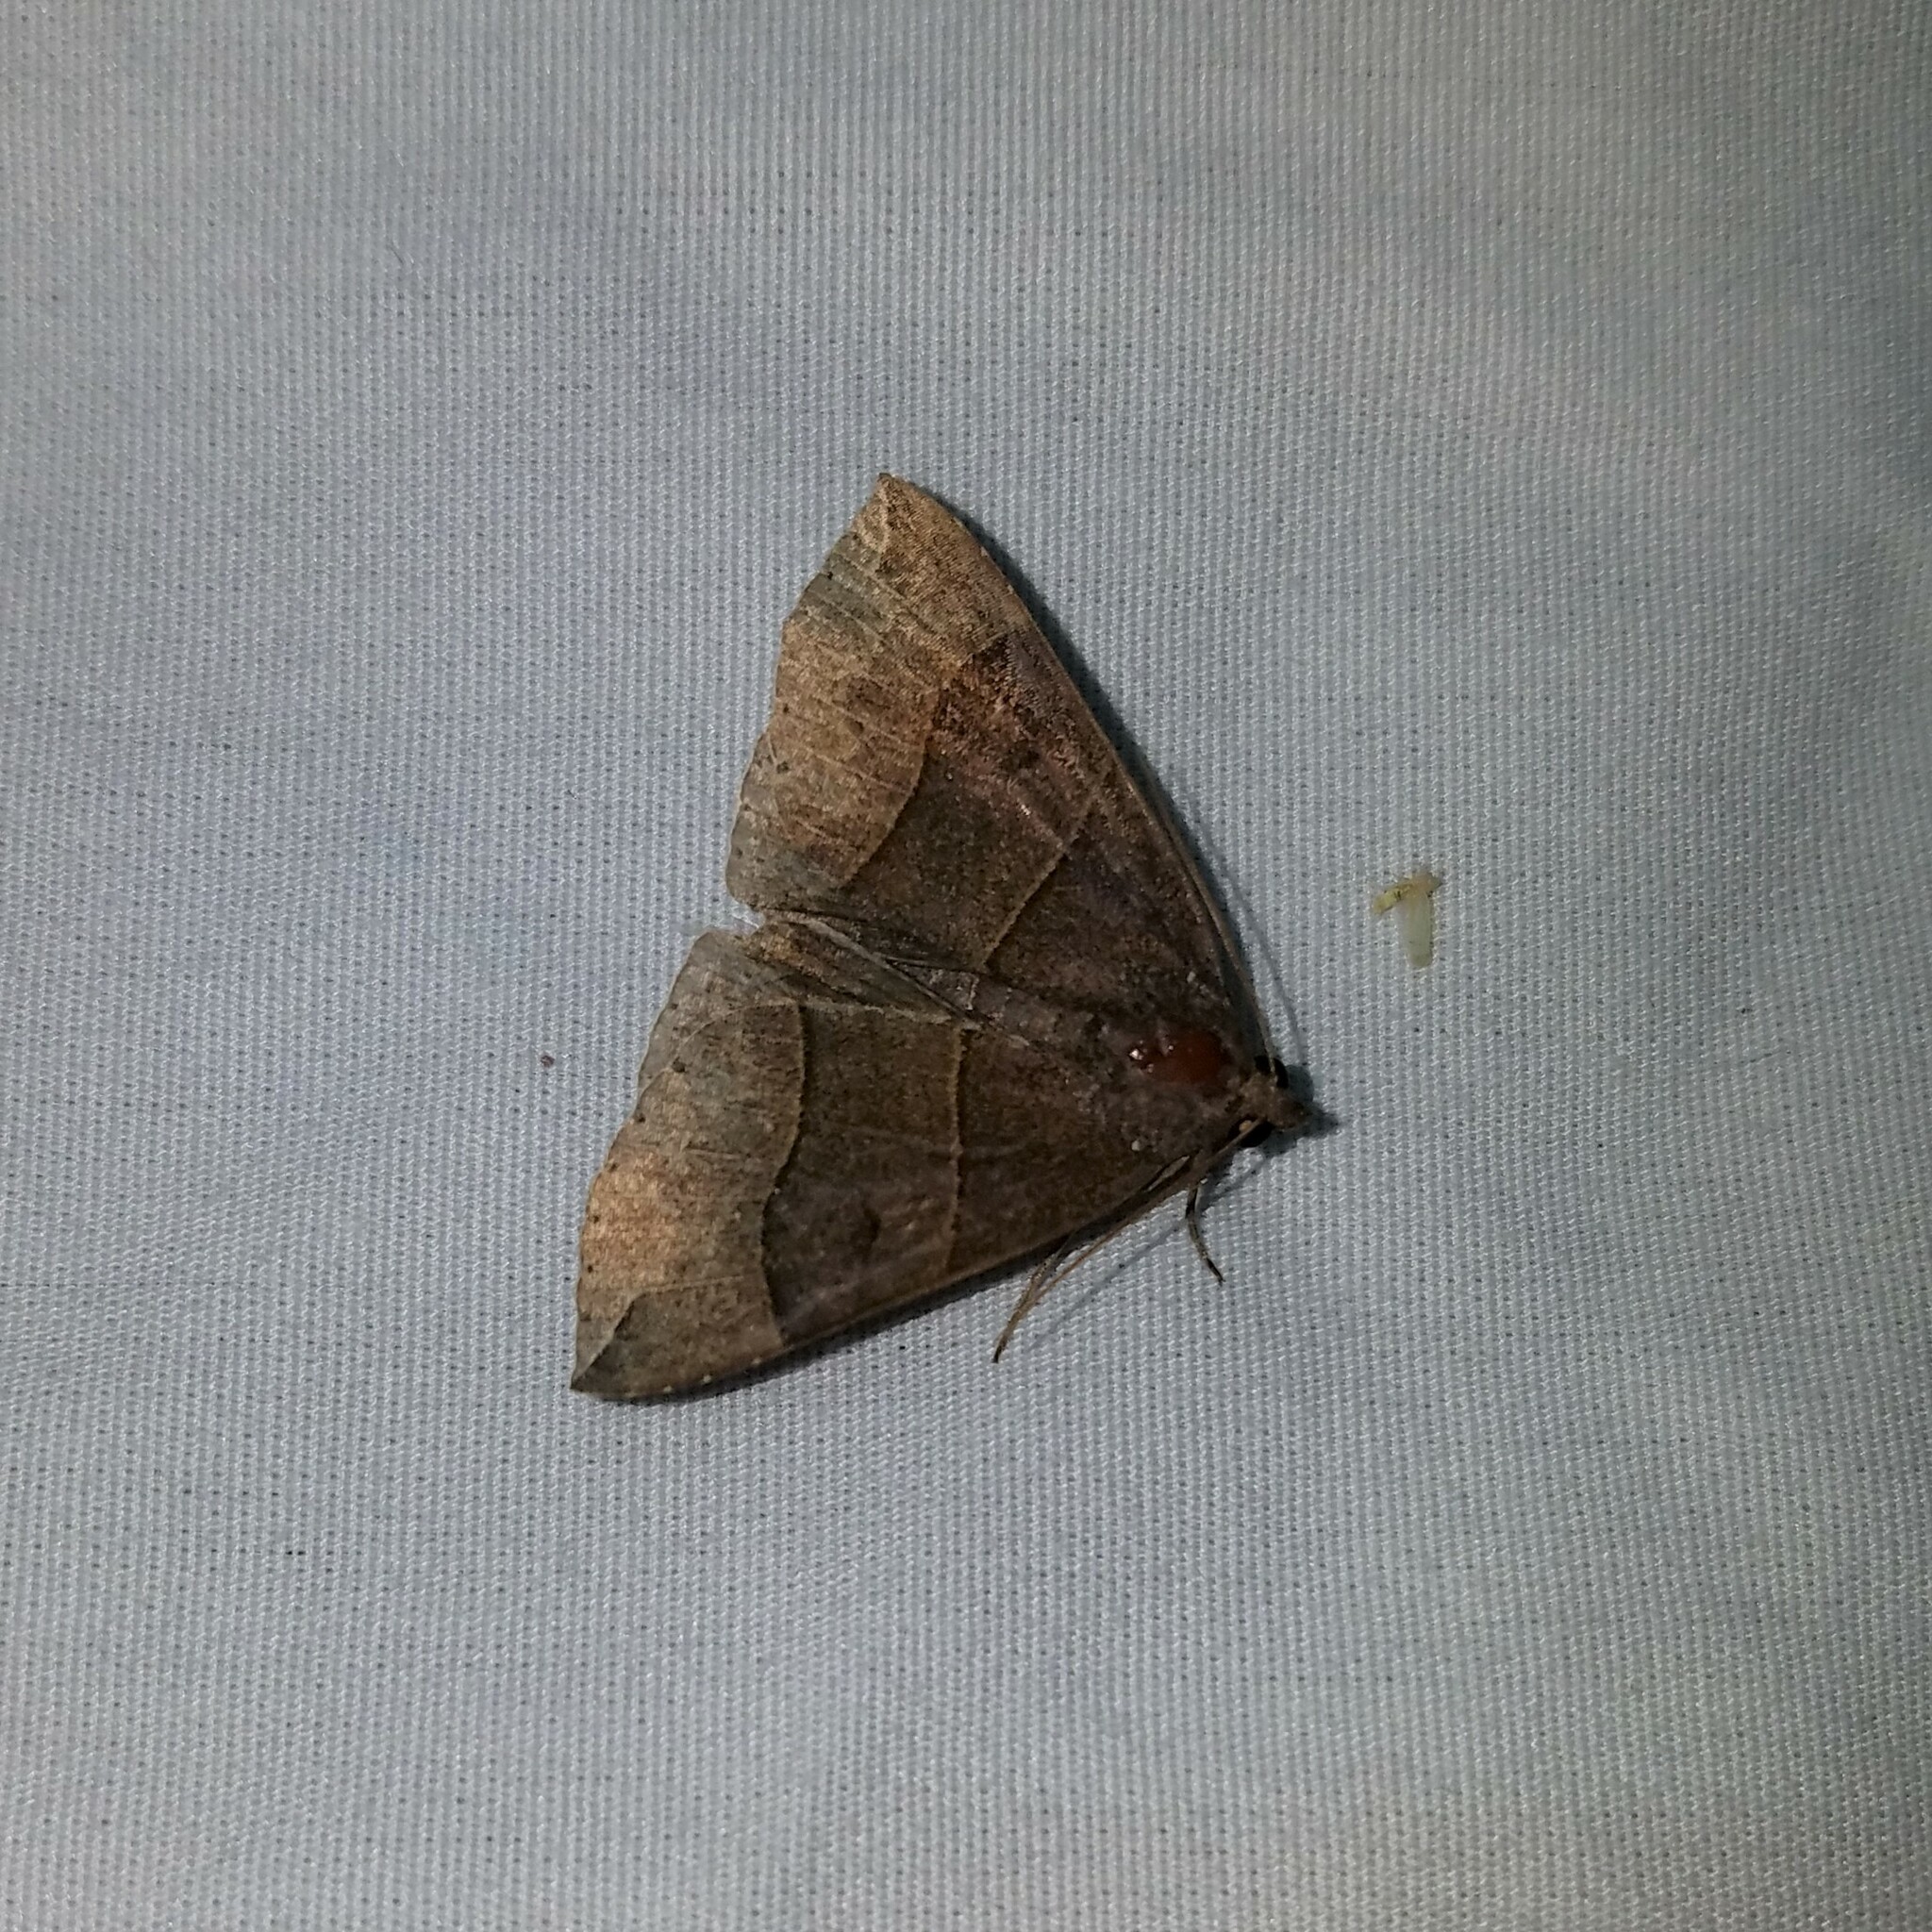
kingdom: Animalia
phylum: Arthropoda
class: Insecta
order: Lepidoptera
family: Erebidae
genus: Parallelia
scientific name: Parallelia bistriaris
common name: Maple looper moth
